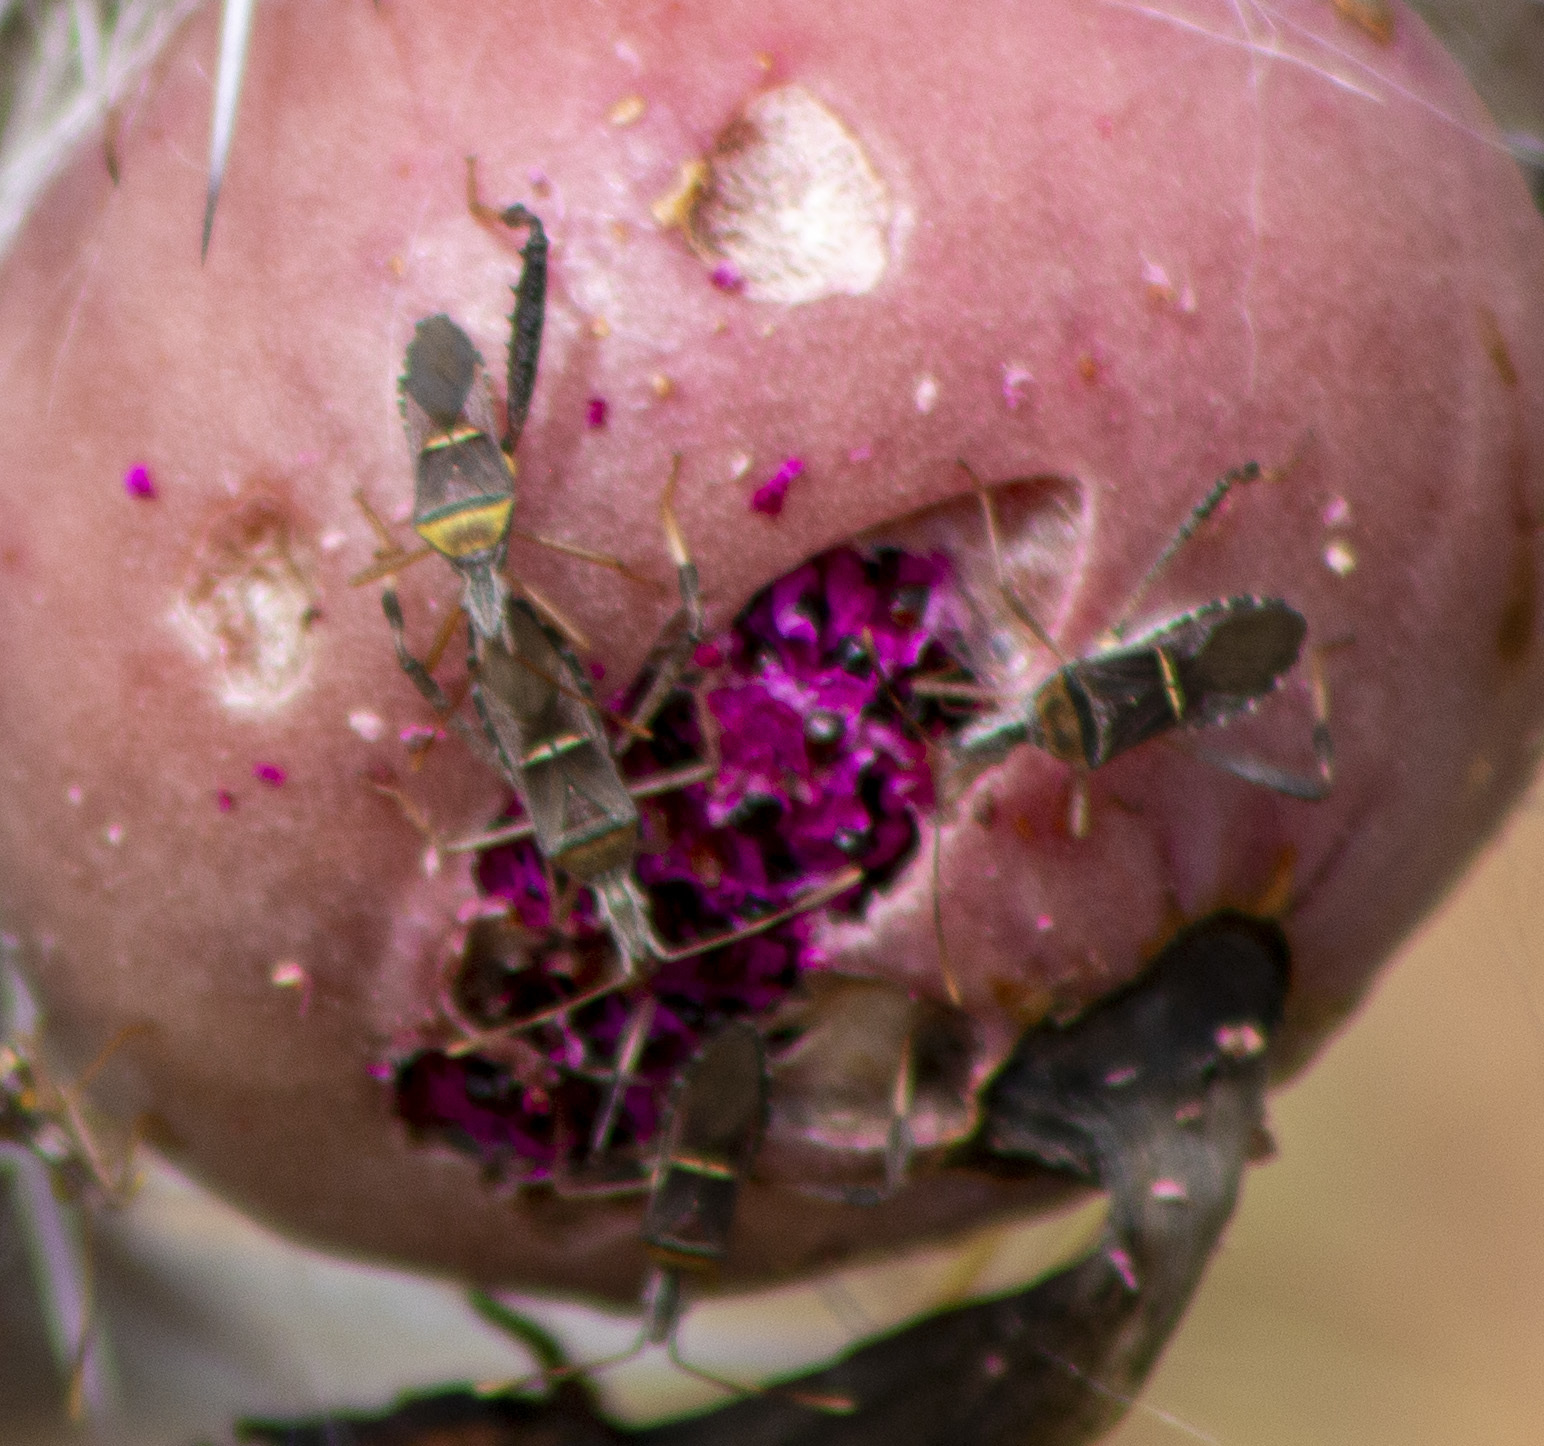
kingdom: Animalia
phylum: Arthropoda
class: Insecta
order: Hemiptera
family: Coreidae
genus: Leptoglossus
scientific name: Leptoglossus cinctus
